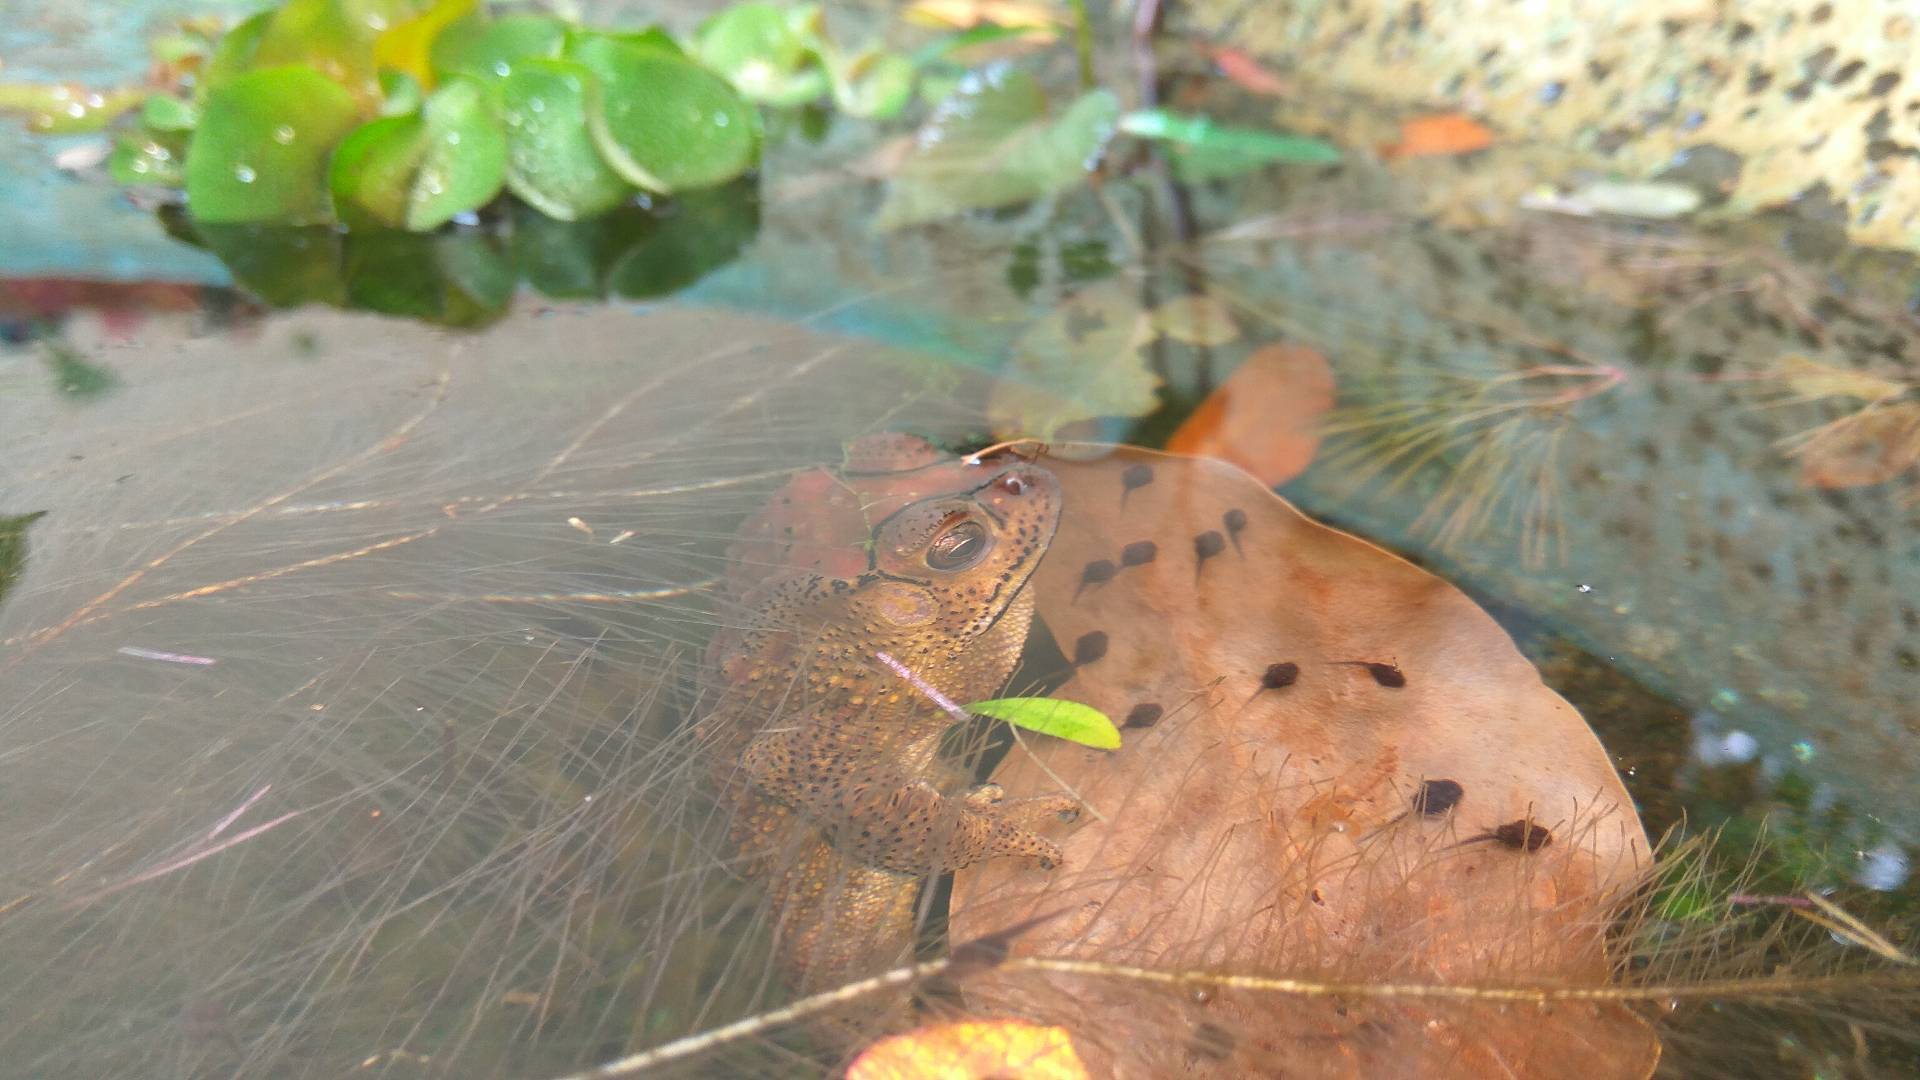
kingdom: Animalia
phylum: Chordata
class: Amphibia
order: Anura
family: Bufonidae
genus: Duttaphrynus
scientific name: Duttaphrynus melanostictus
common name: Common sunda toad
